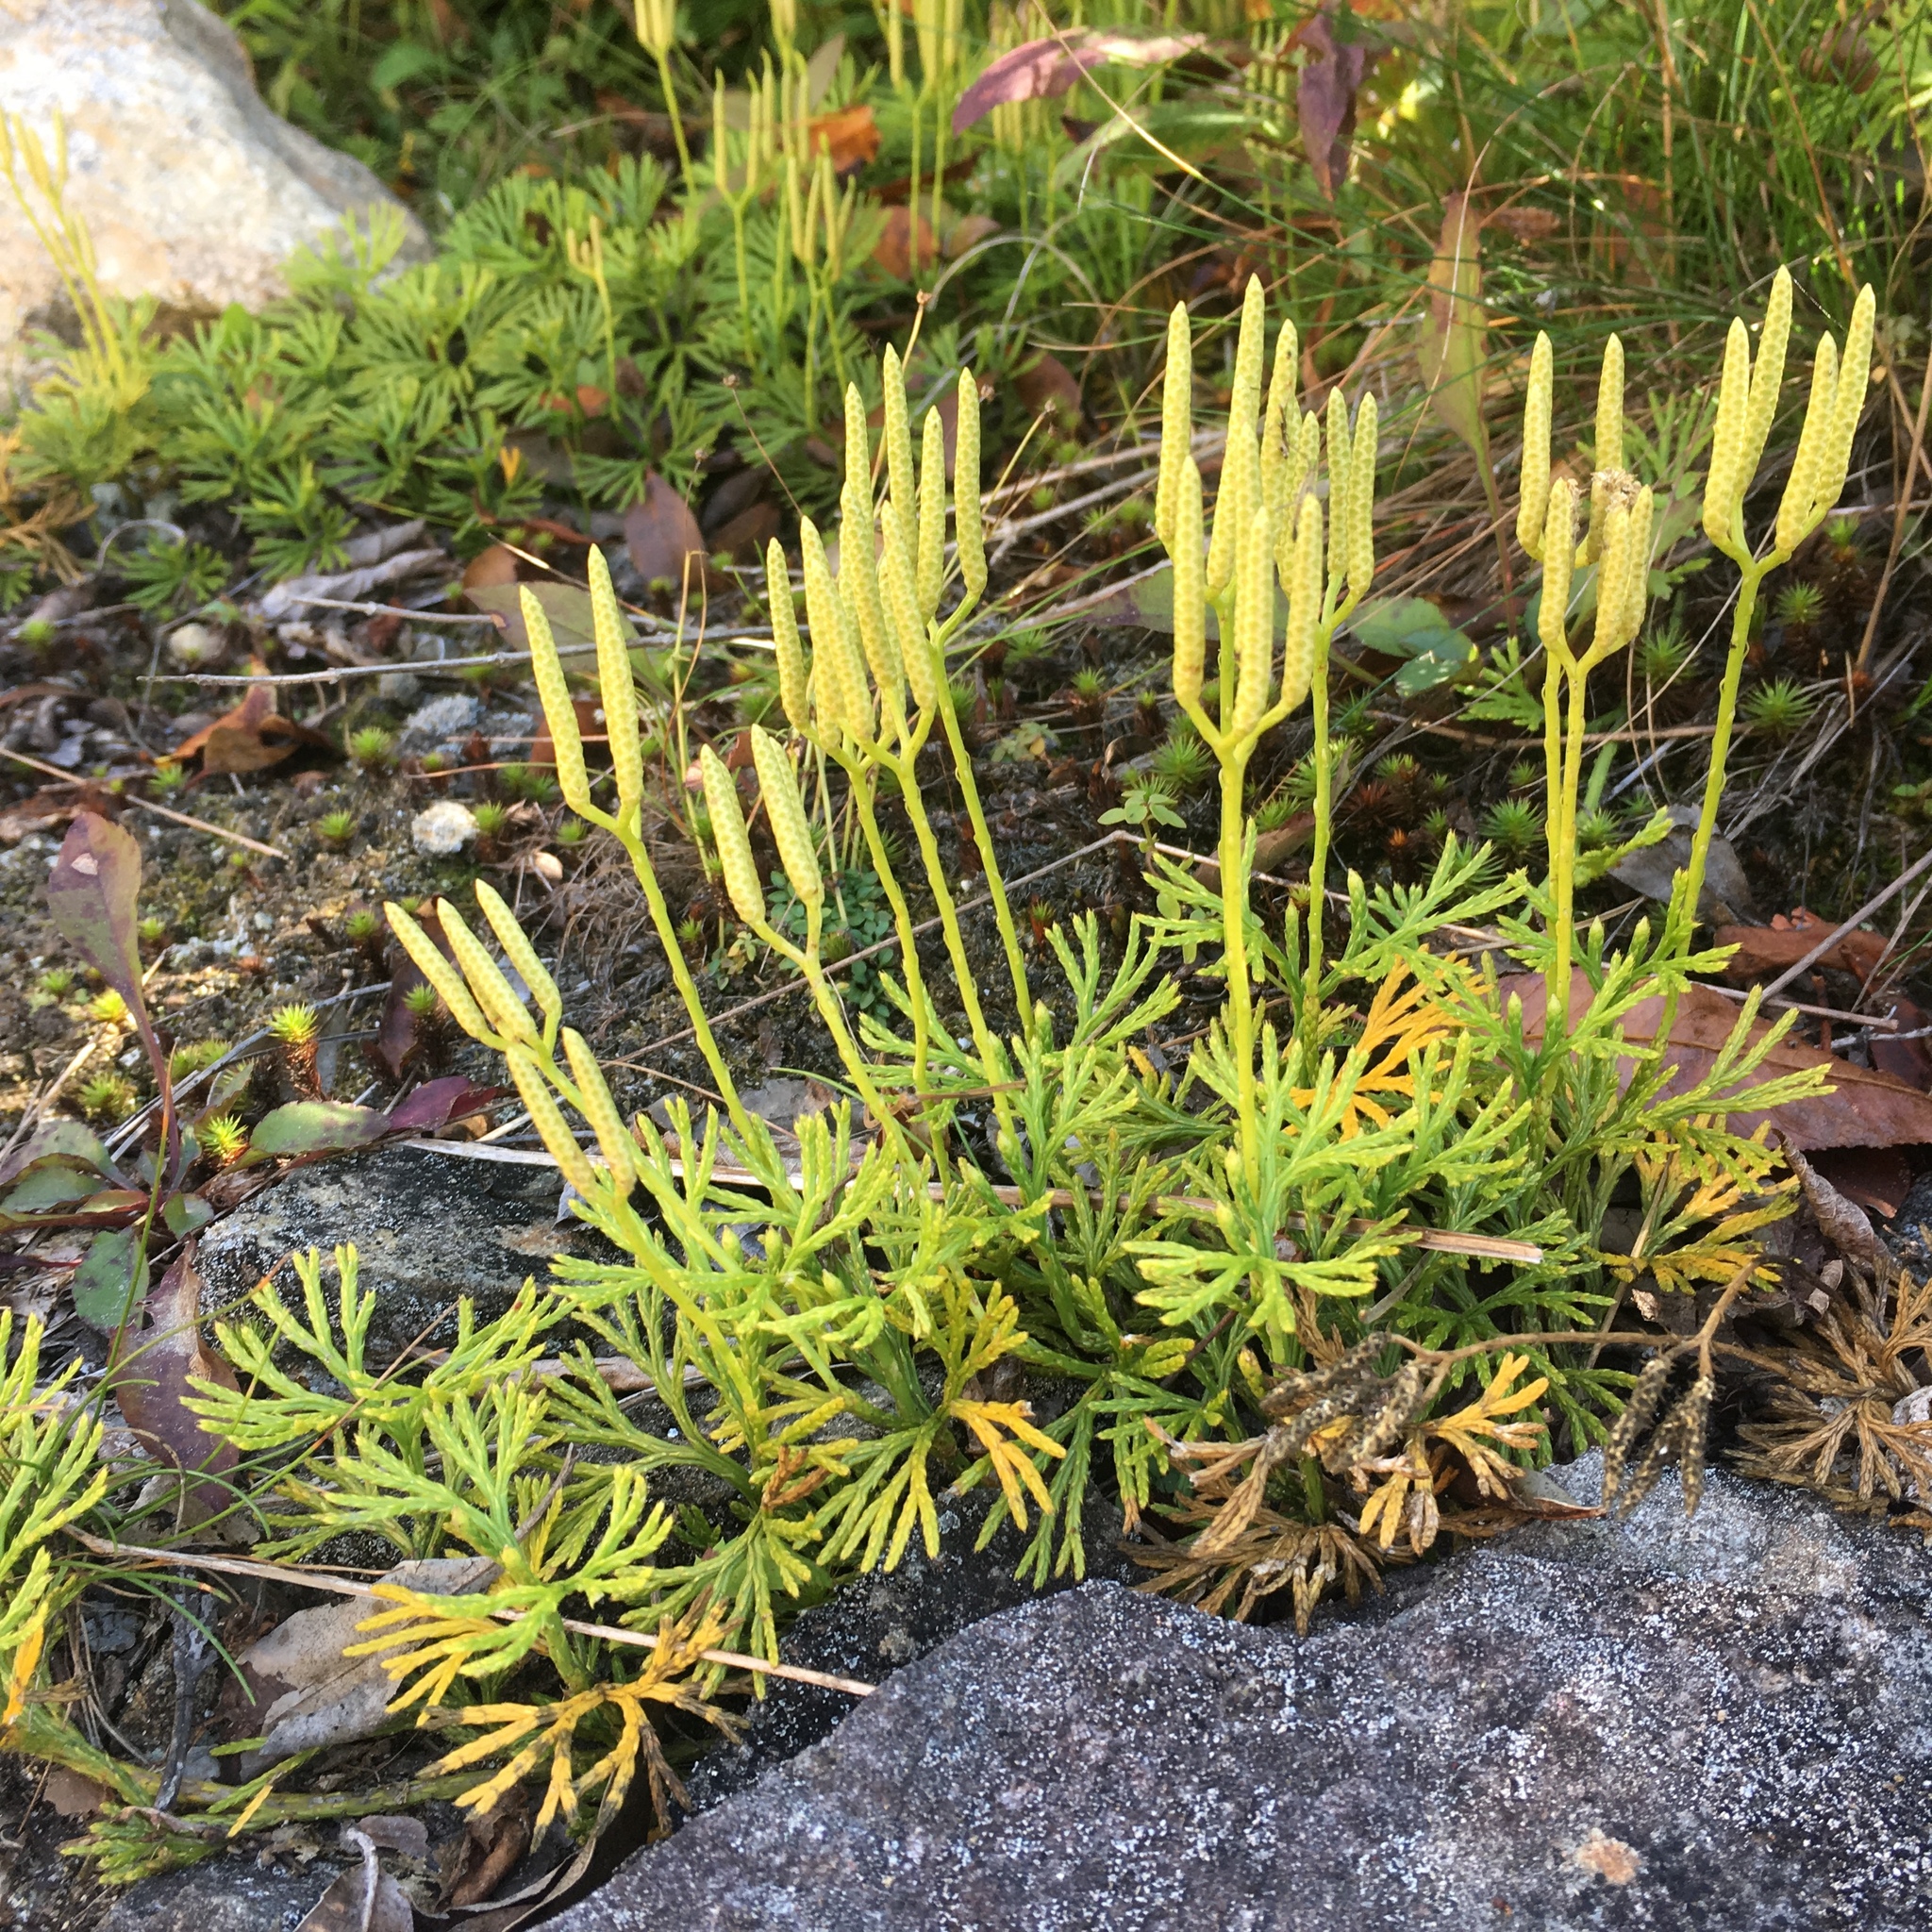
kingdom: Plantae
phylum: Tracheophyta
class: Lycopodiopsida
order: Lycopodiales
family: Lycopodiaceae
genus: Diphasiastrum
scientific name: Diphasiastrum digitatum
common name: Southern running-pine
